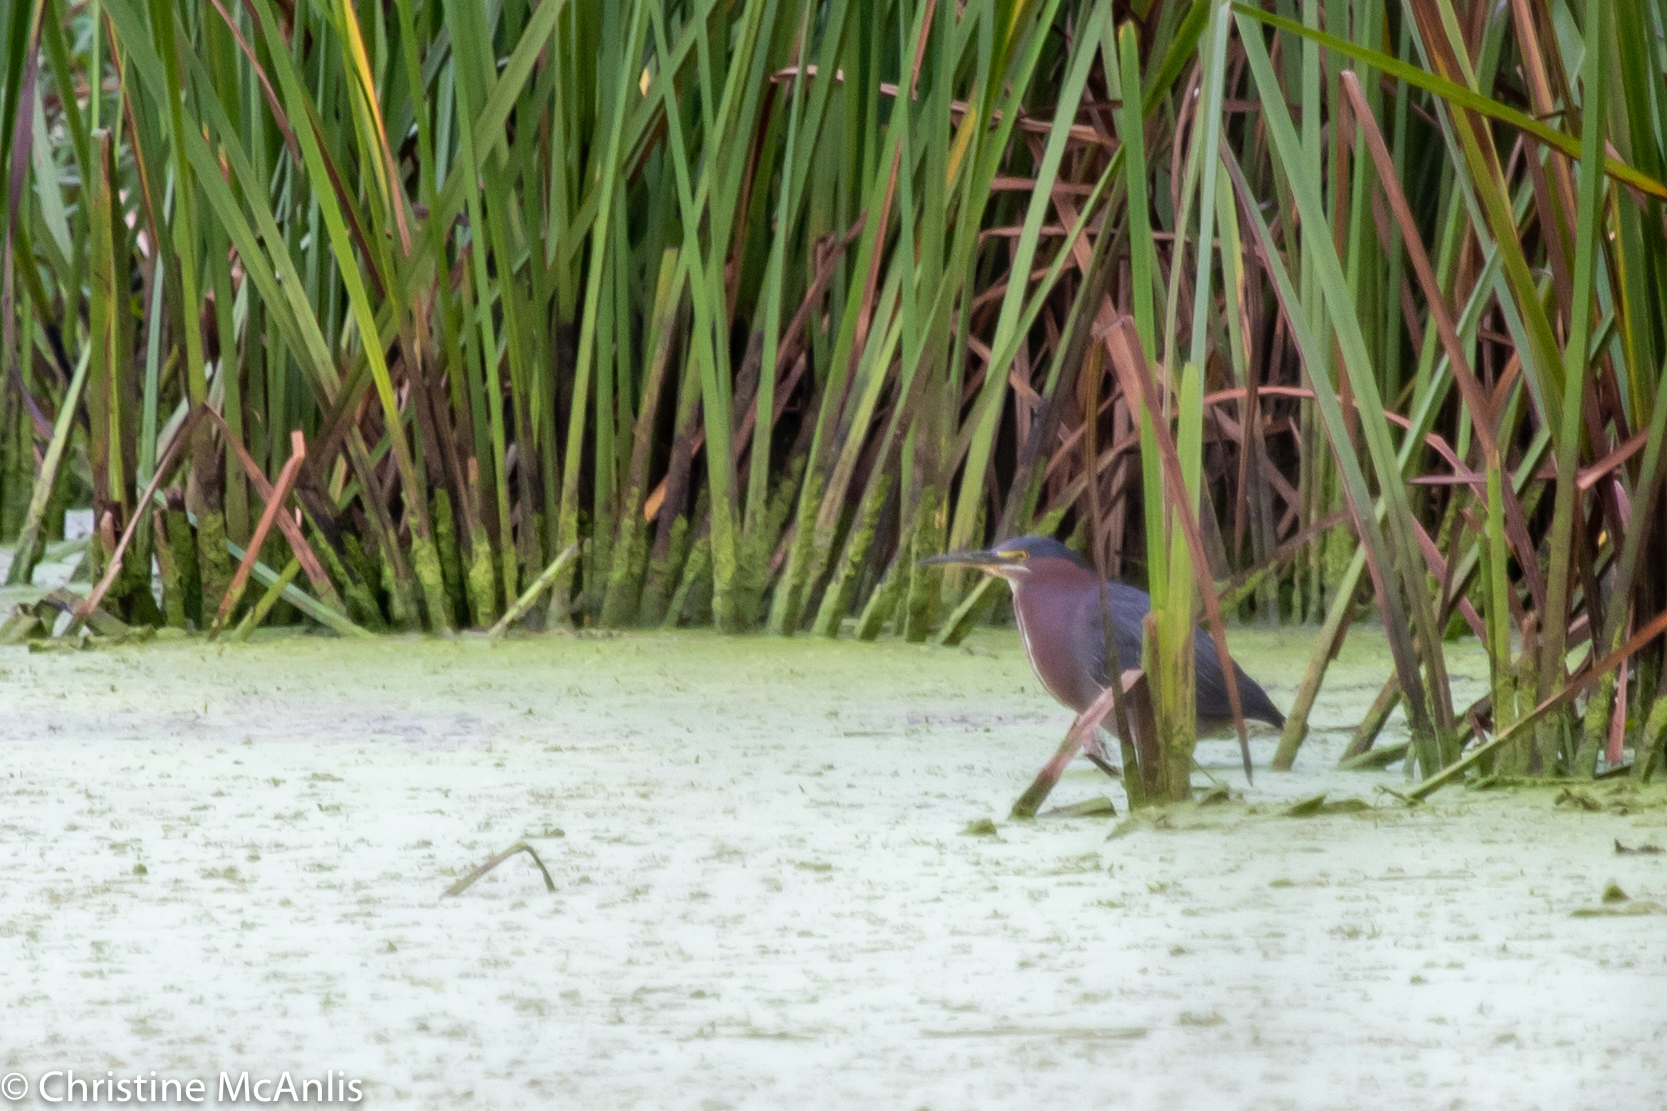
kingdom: Animalia
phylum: Chordata
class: Aves
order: Pelecaniformes
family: Ardeidae
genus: Butorides
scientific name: Butorides virescens
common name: Green heron
